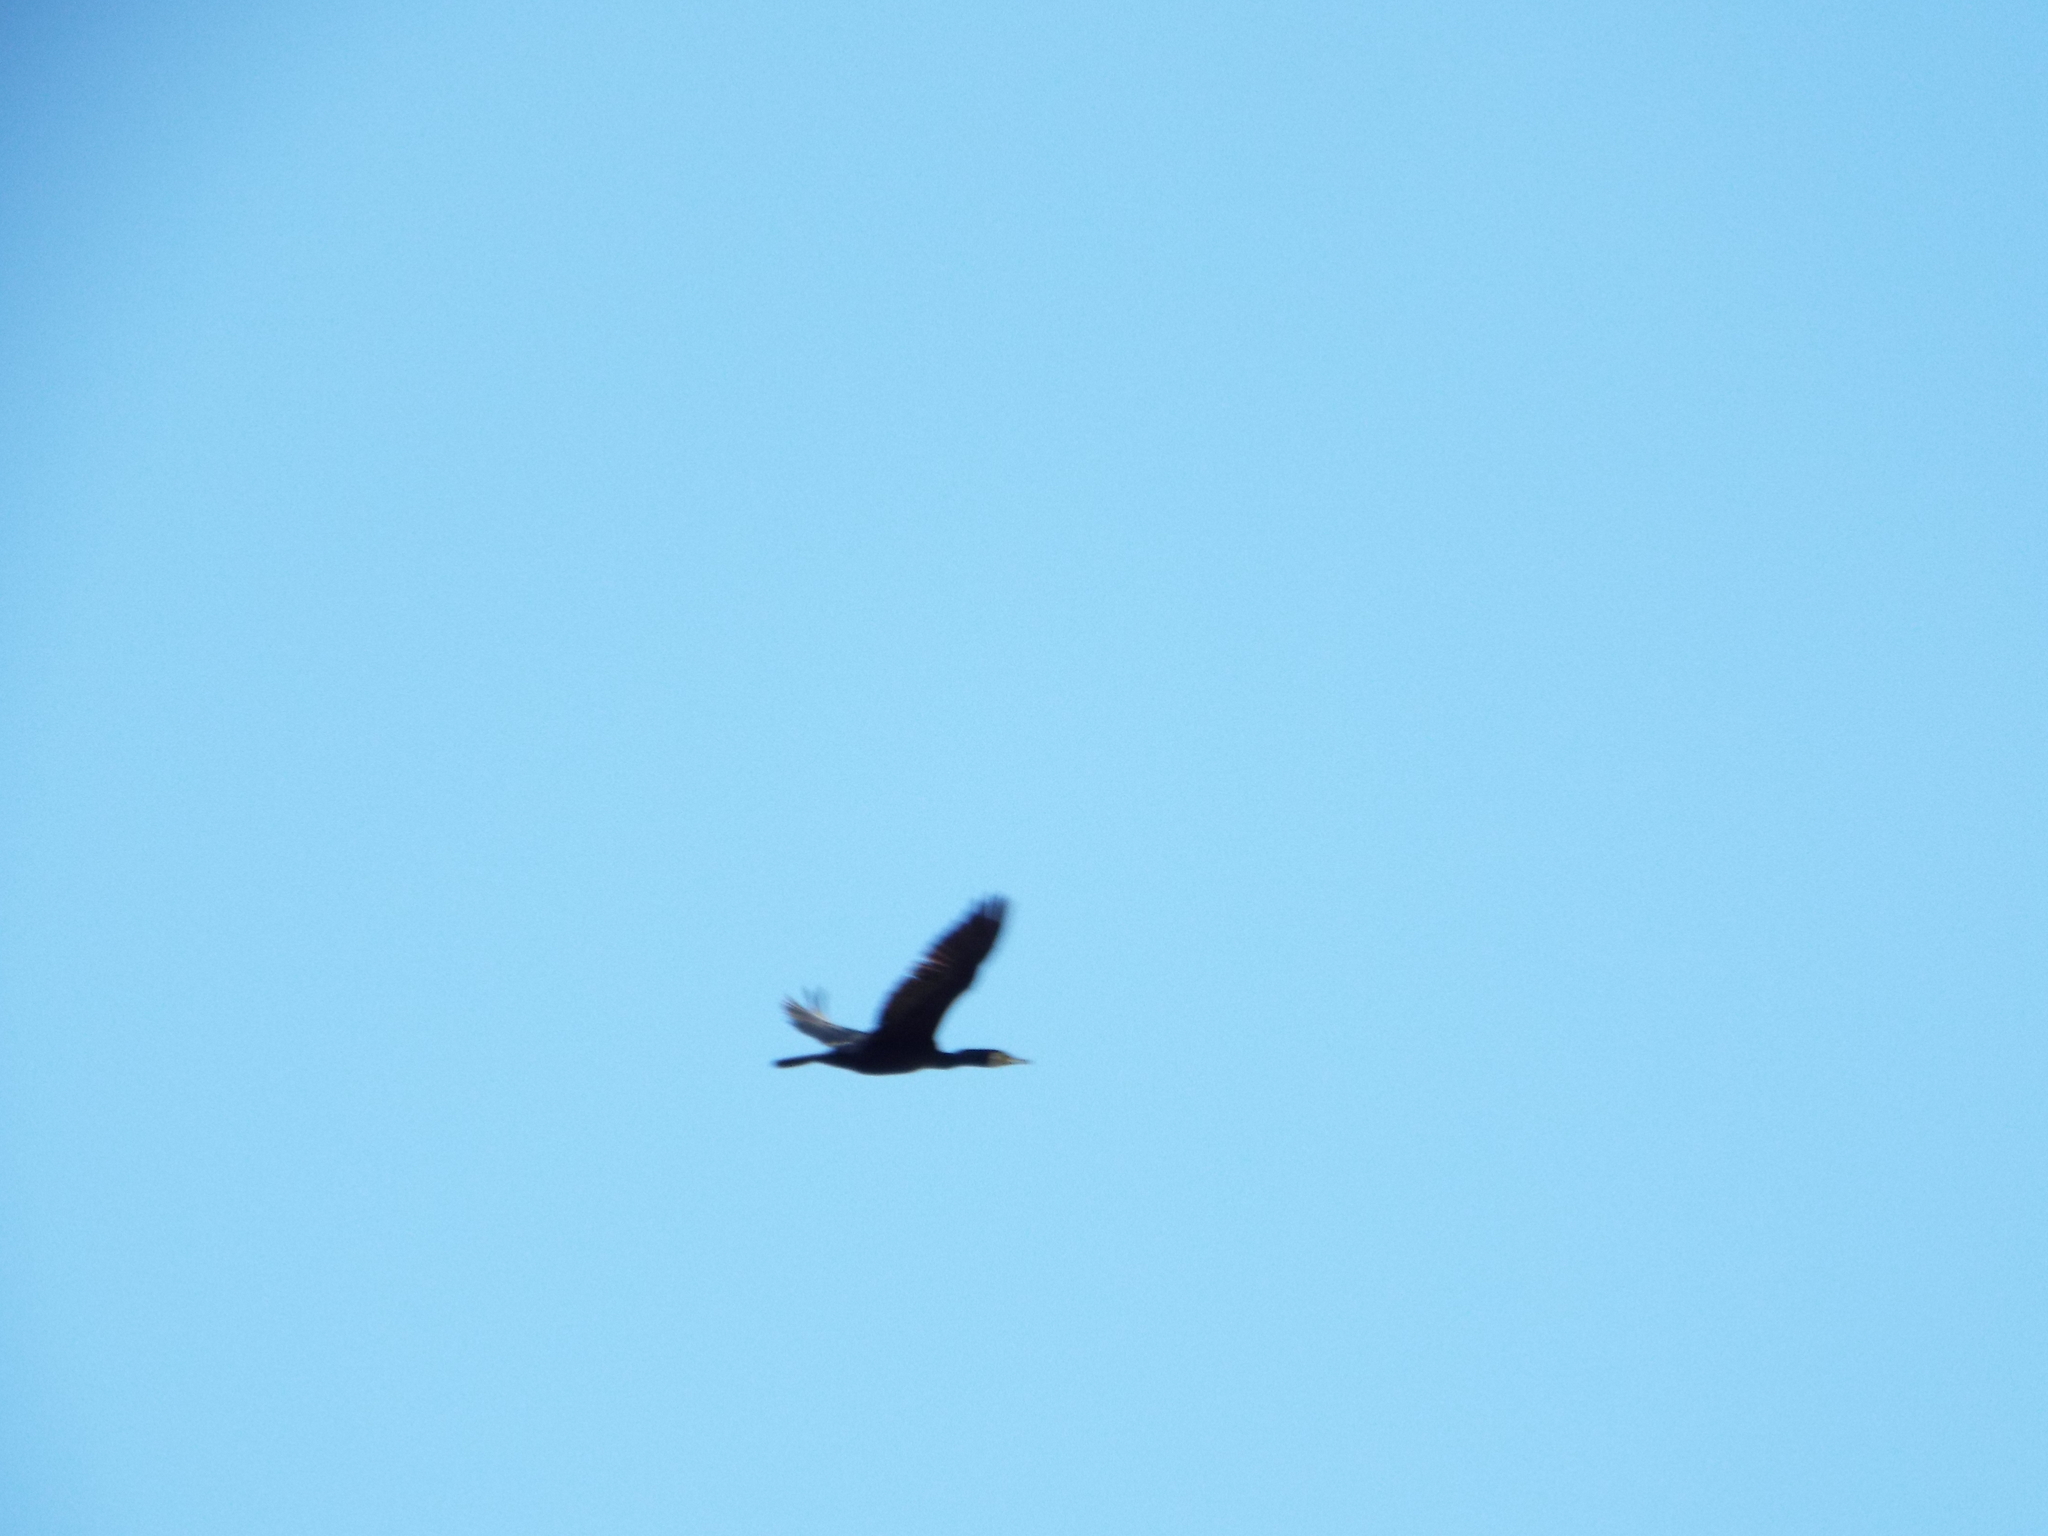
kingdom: Animalia
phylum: Chordata
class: Aves
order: Suliformes
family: Phalacrocoracidae
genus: Phalacrocorax
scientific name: Phalacrocorax carbo
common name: Great cormorant
